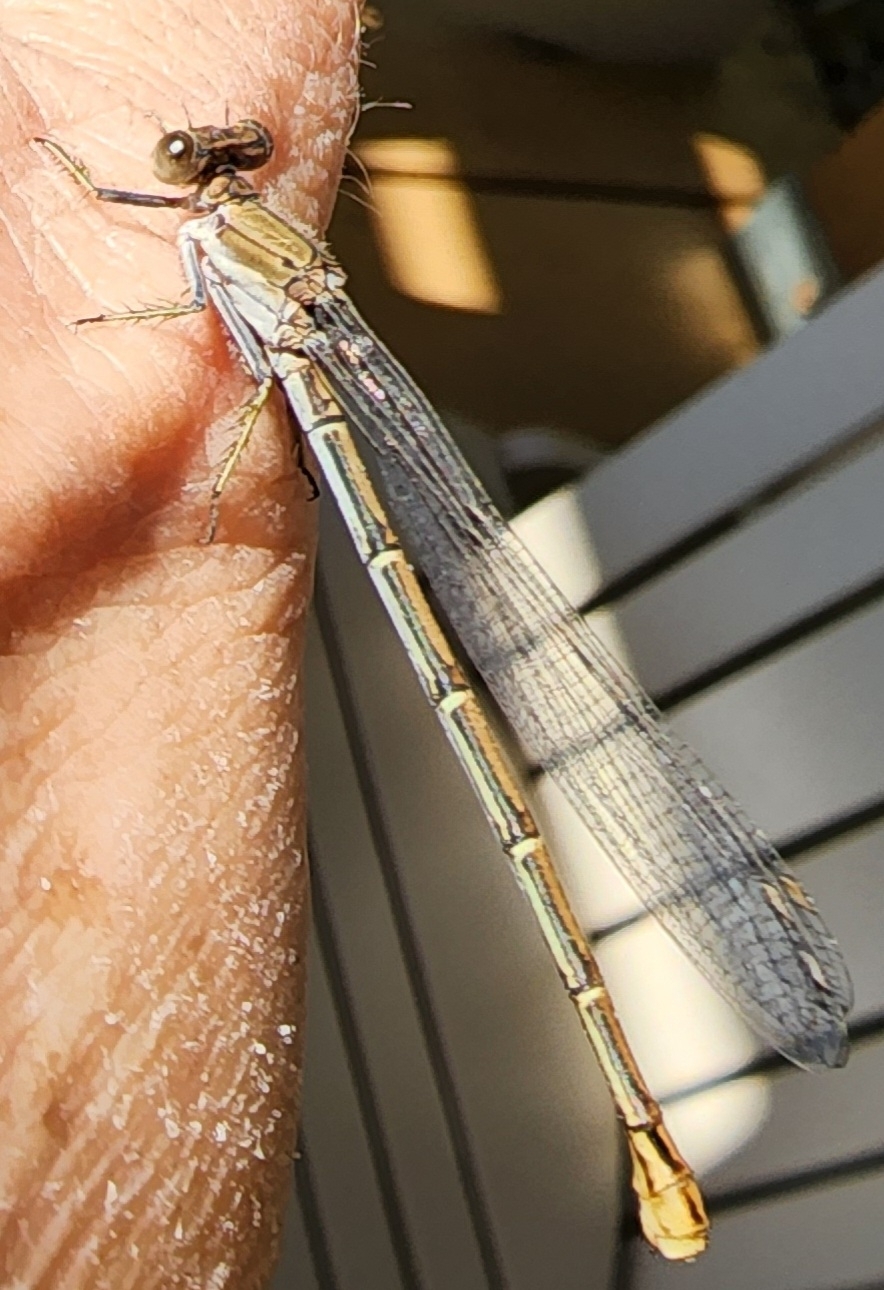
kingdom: Animalia
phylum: Arthropoda
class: Insecta
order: Odonata
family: Coenagrionidae
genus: Argia
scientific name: Argia moesta
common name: Powdered dancer
